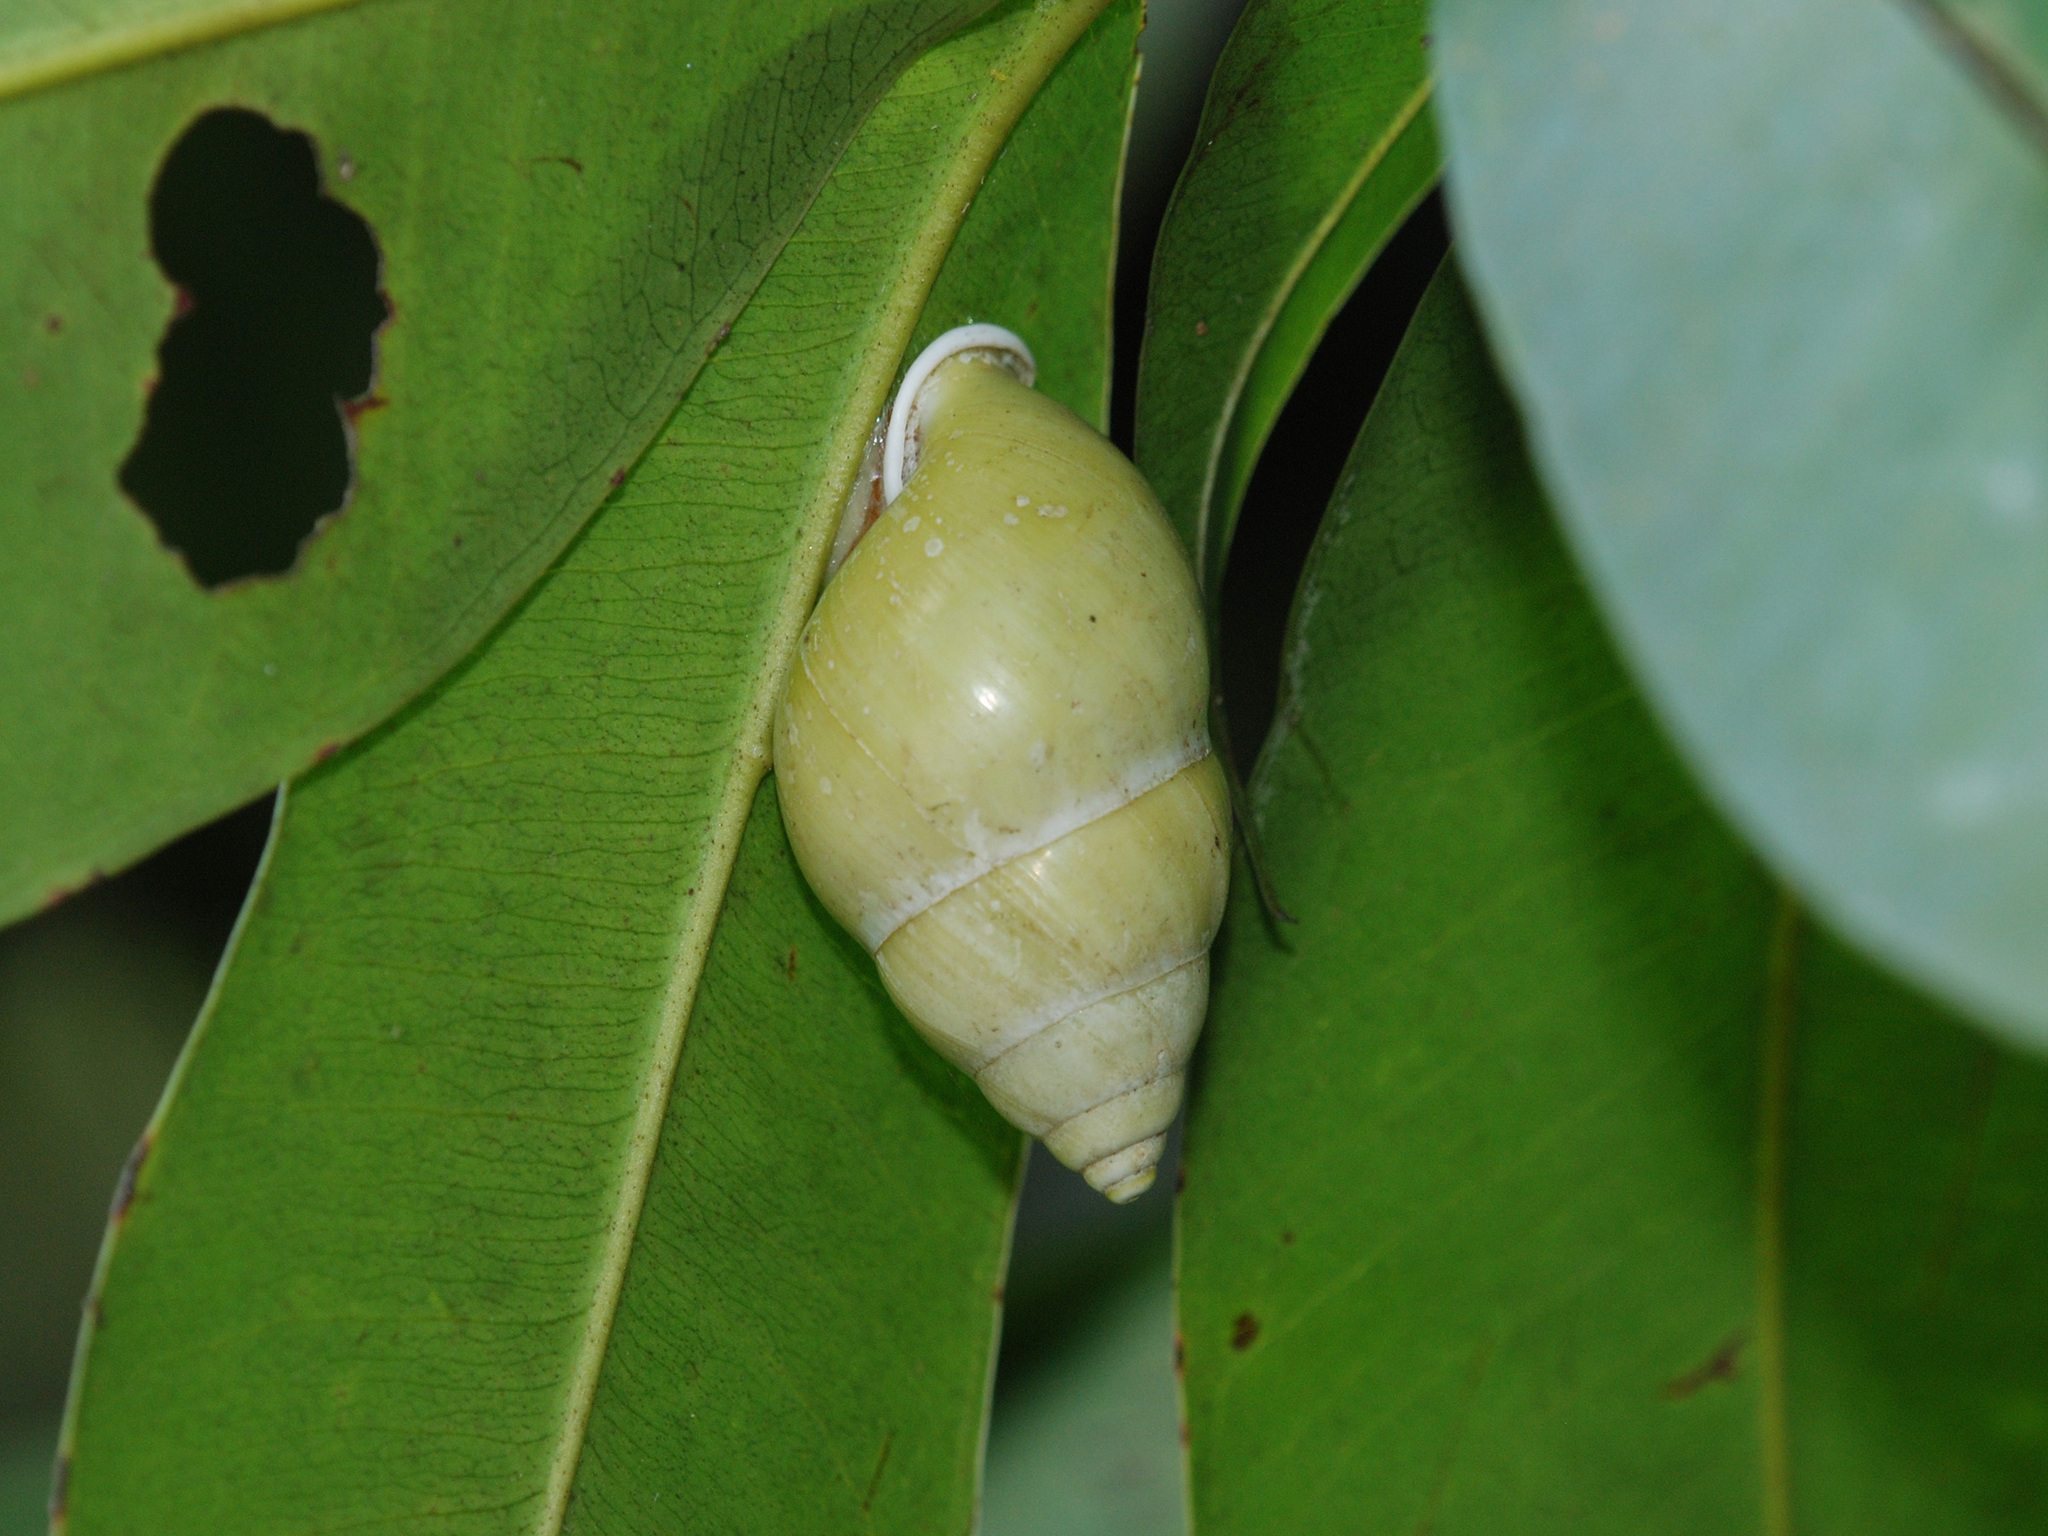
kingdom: Animalia
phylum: Mollusca
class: Gastropoda
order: Stylommatophora
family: Camaenidae
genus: Amphidromus
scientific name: Amphidromus atricallosus
